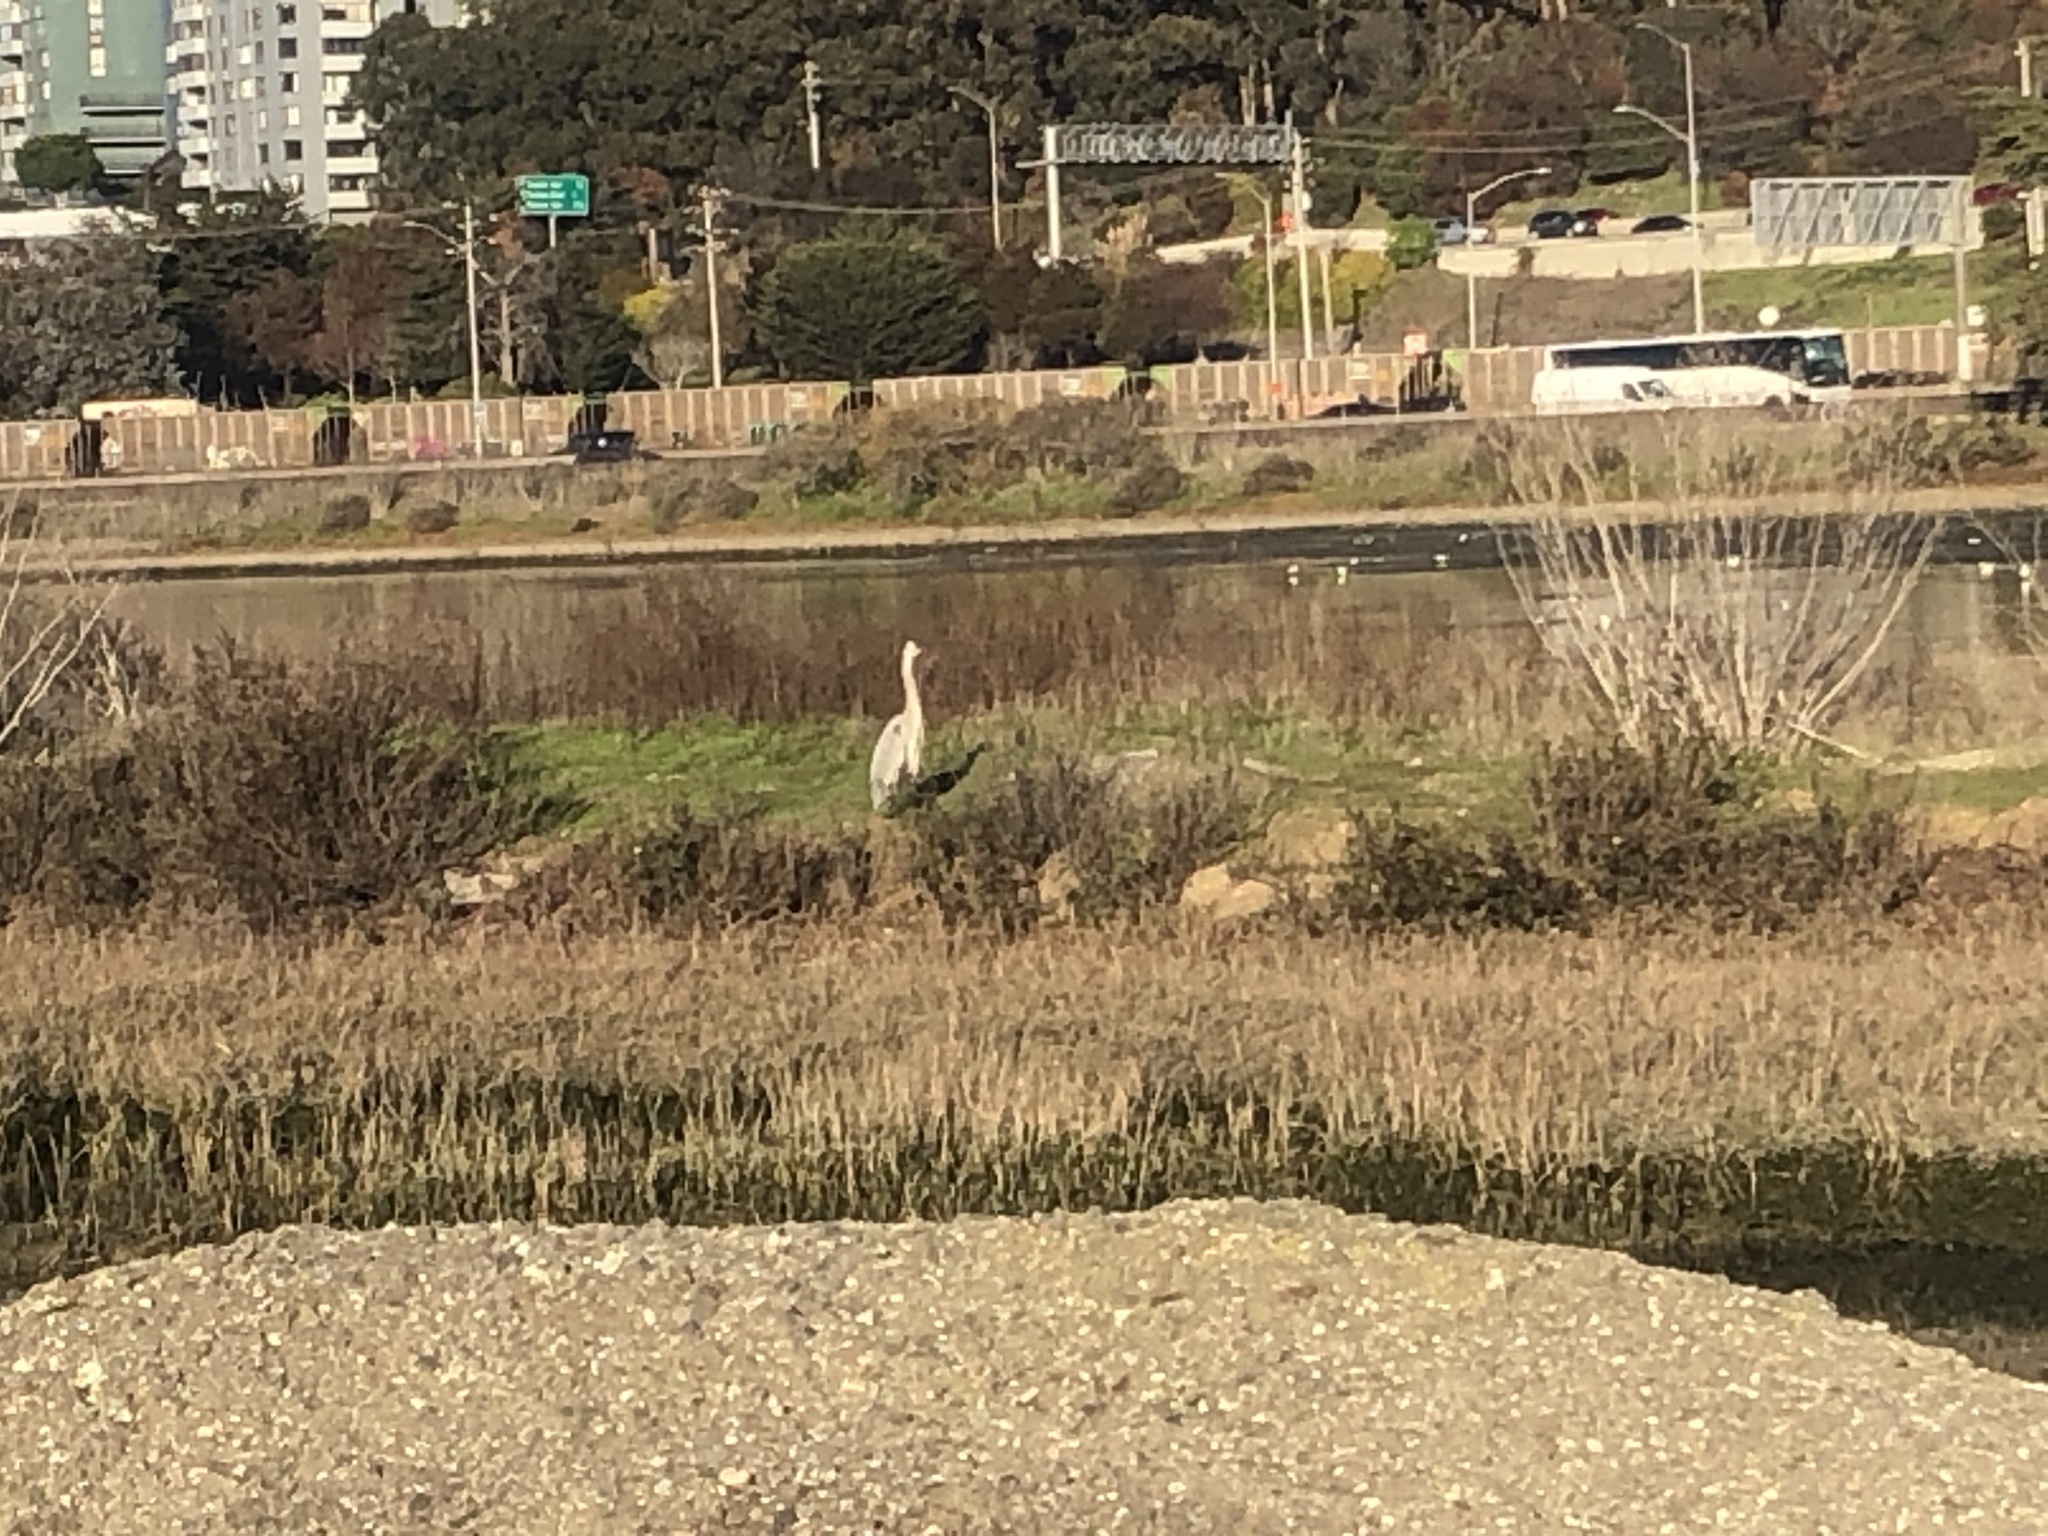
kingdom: Animalia
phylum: Chordata
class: Aves
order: Pelecaniformes
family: Ardeidae
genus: Ardea
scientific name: Ardea herodias
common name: Great blue heron
